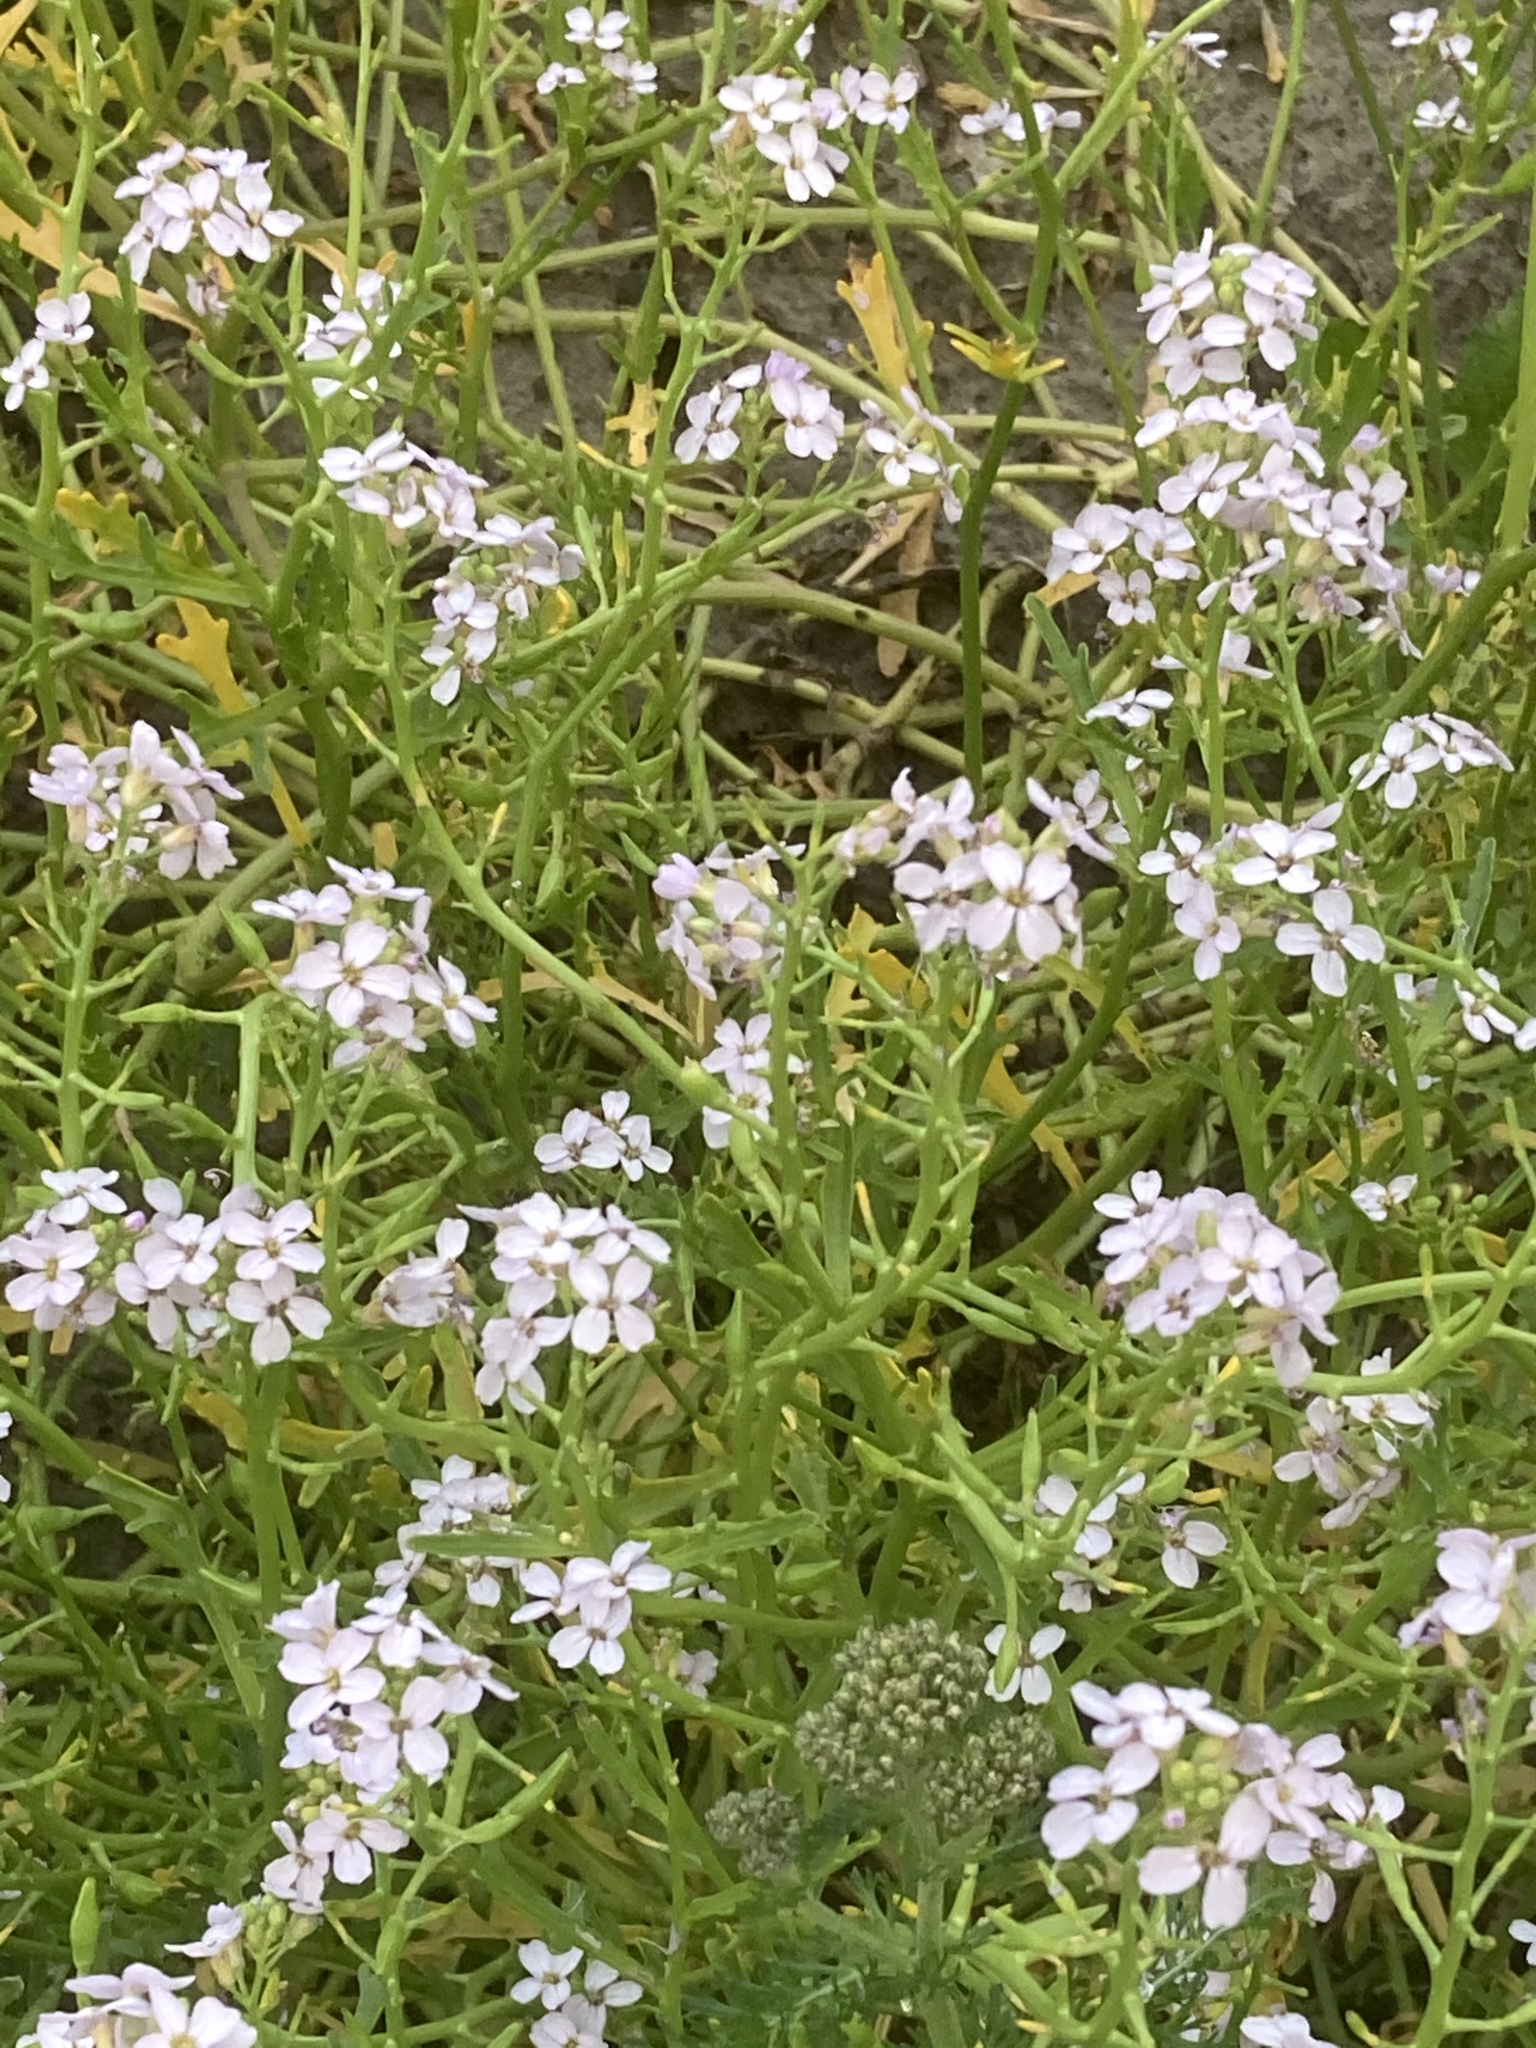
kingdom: Plantae
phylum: Tracheophyta
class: Magnoliopsida
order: Brassicales
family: Brassicaceae
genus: Cakile
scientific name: Cakile maritima
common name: Sea rocket
